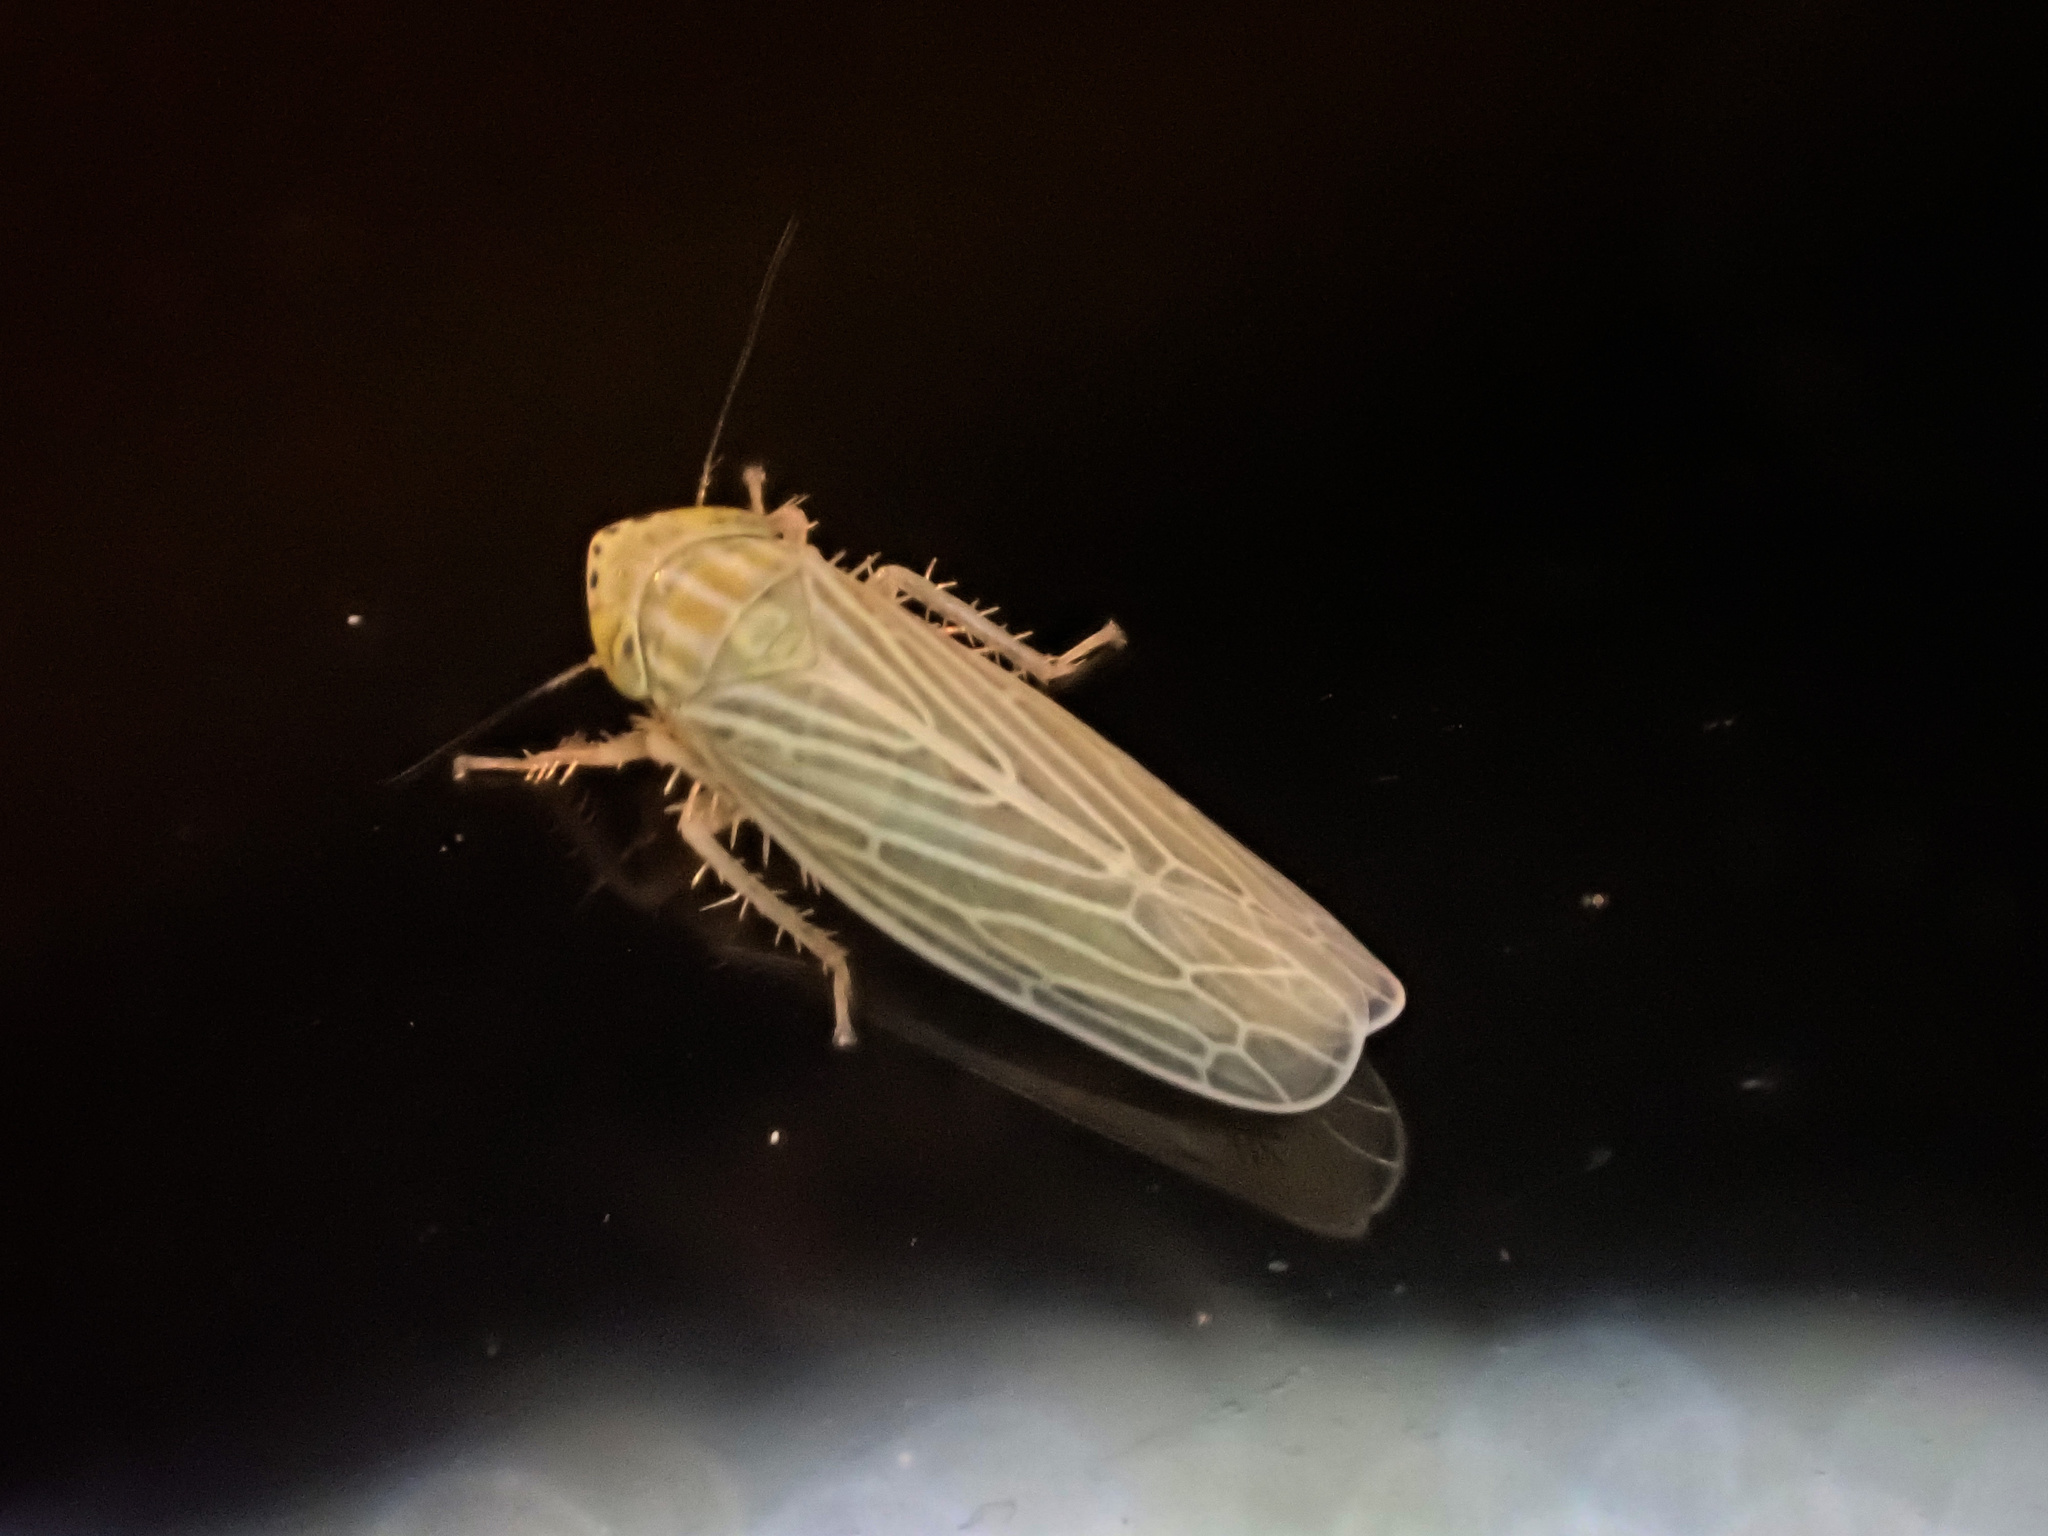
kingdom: Animalia
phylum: Arthropoda
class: Insecta
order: Hemiptera
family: Cicadellidae
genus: Graminella
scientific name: Graminella fitchii
